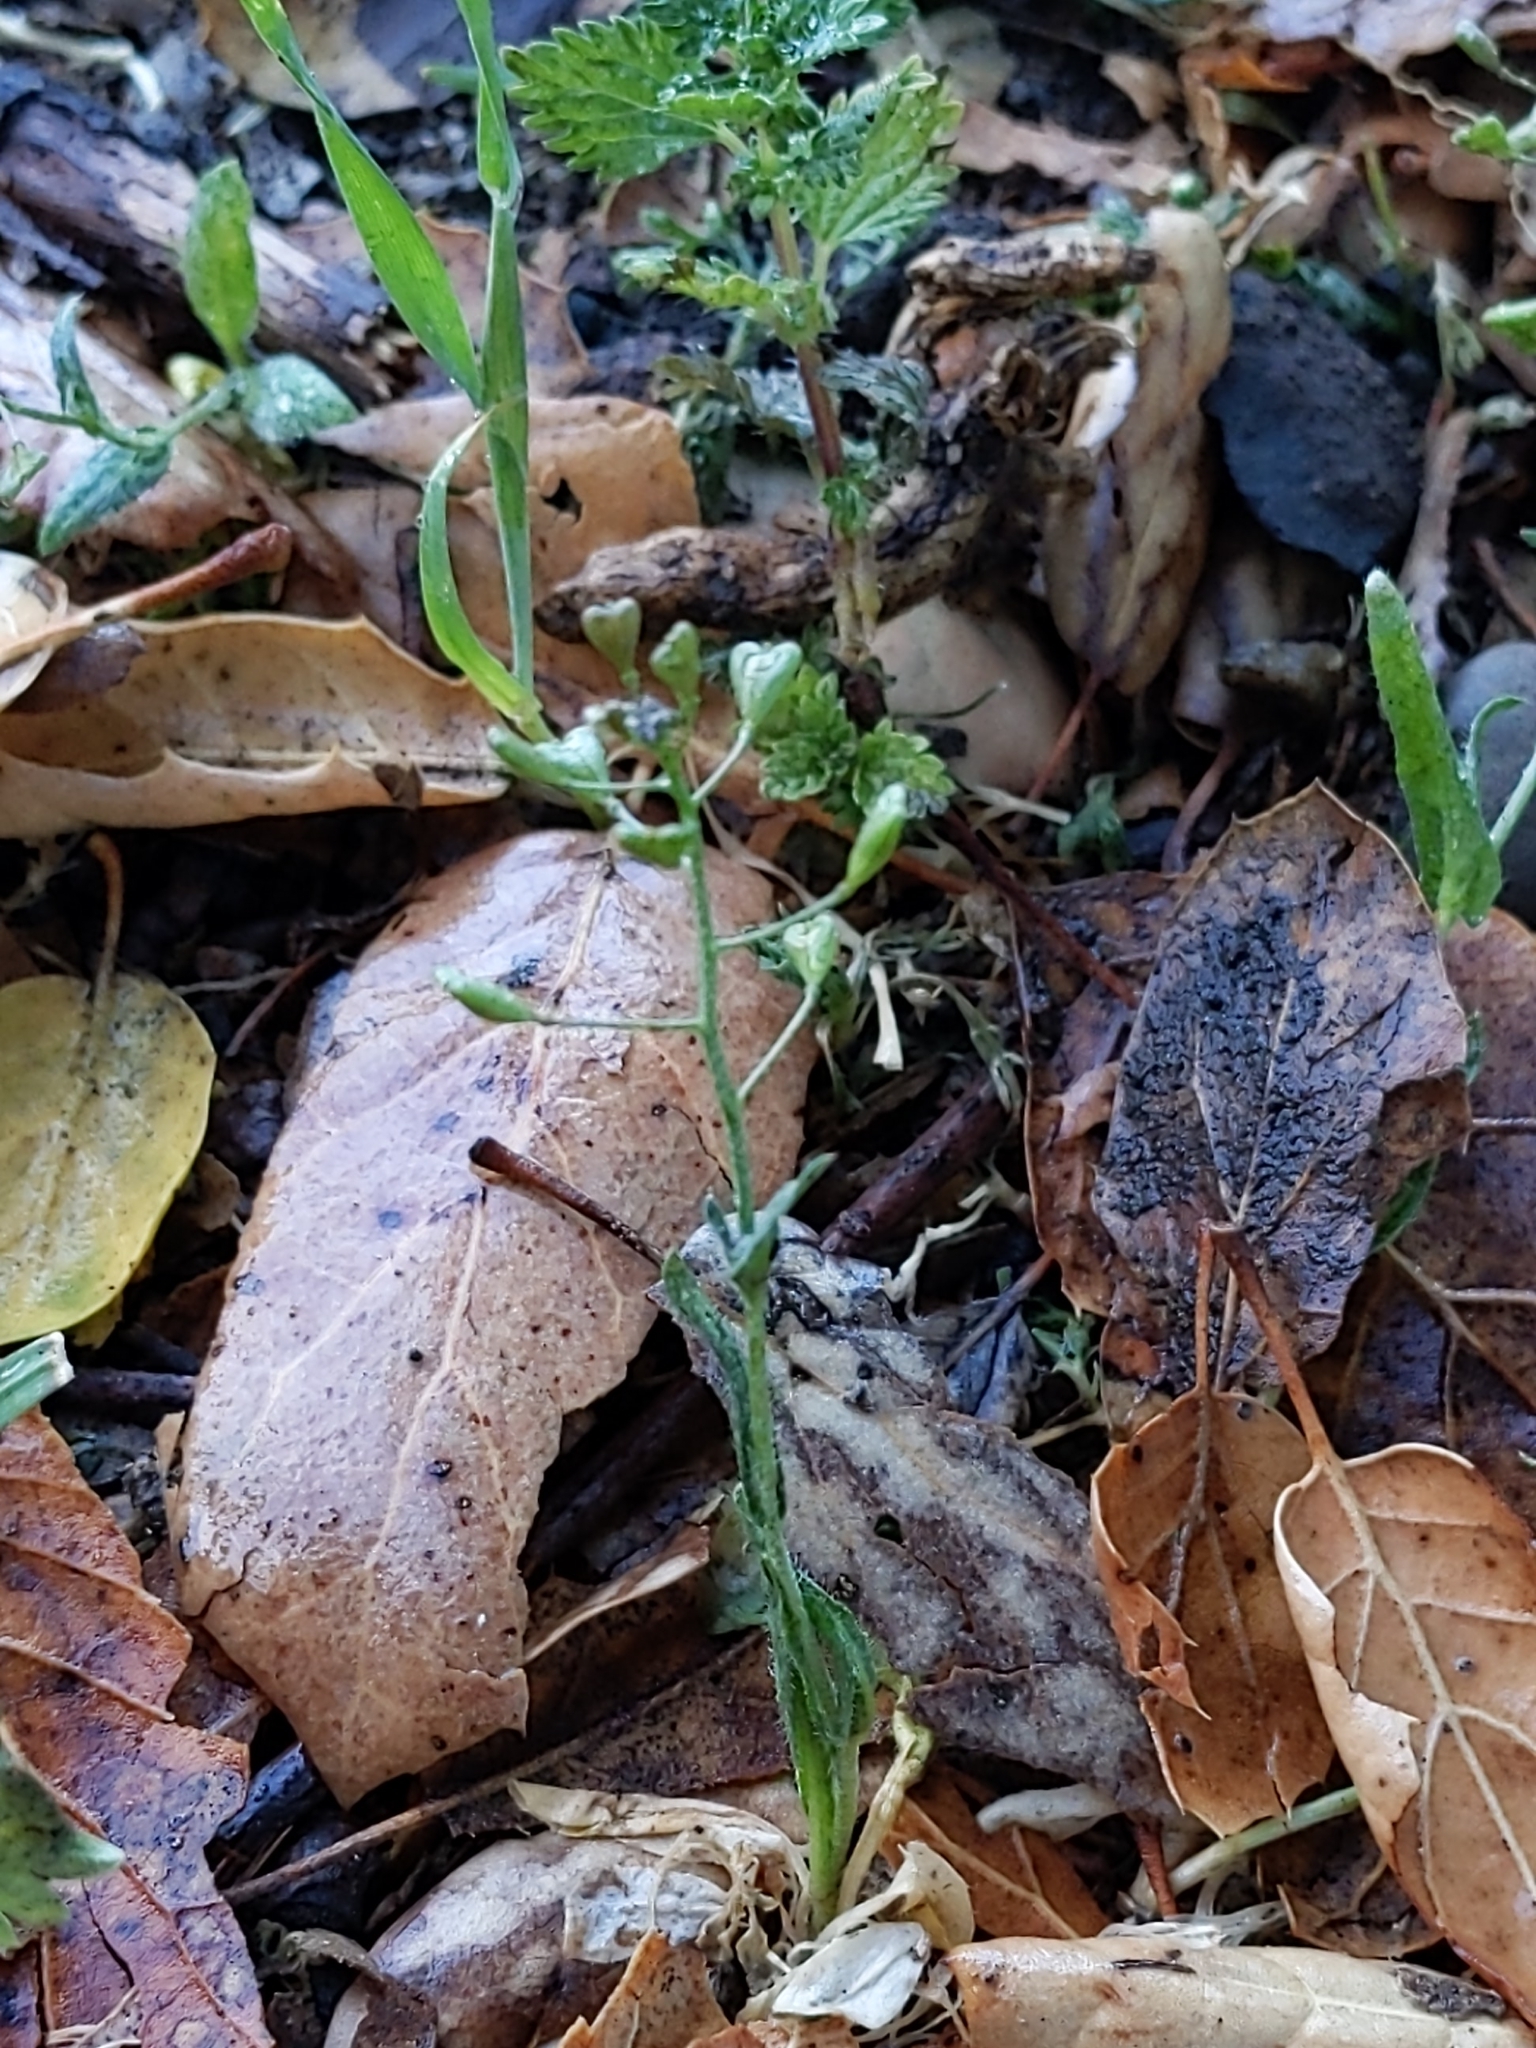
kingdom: Plantae
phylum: Tracheophyta
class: Magnoliopsida
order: Brassicales
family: Brassicaceae
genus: Capsella
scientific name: Capsella bursa-pastoris
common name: Shepherd's purse
